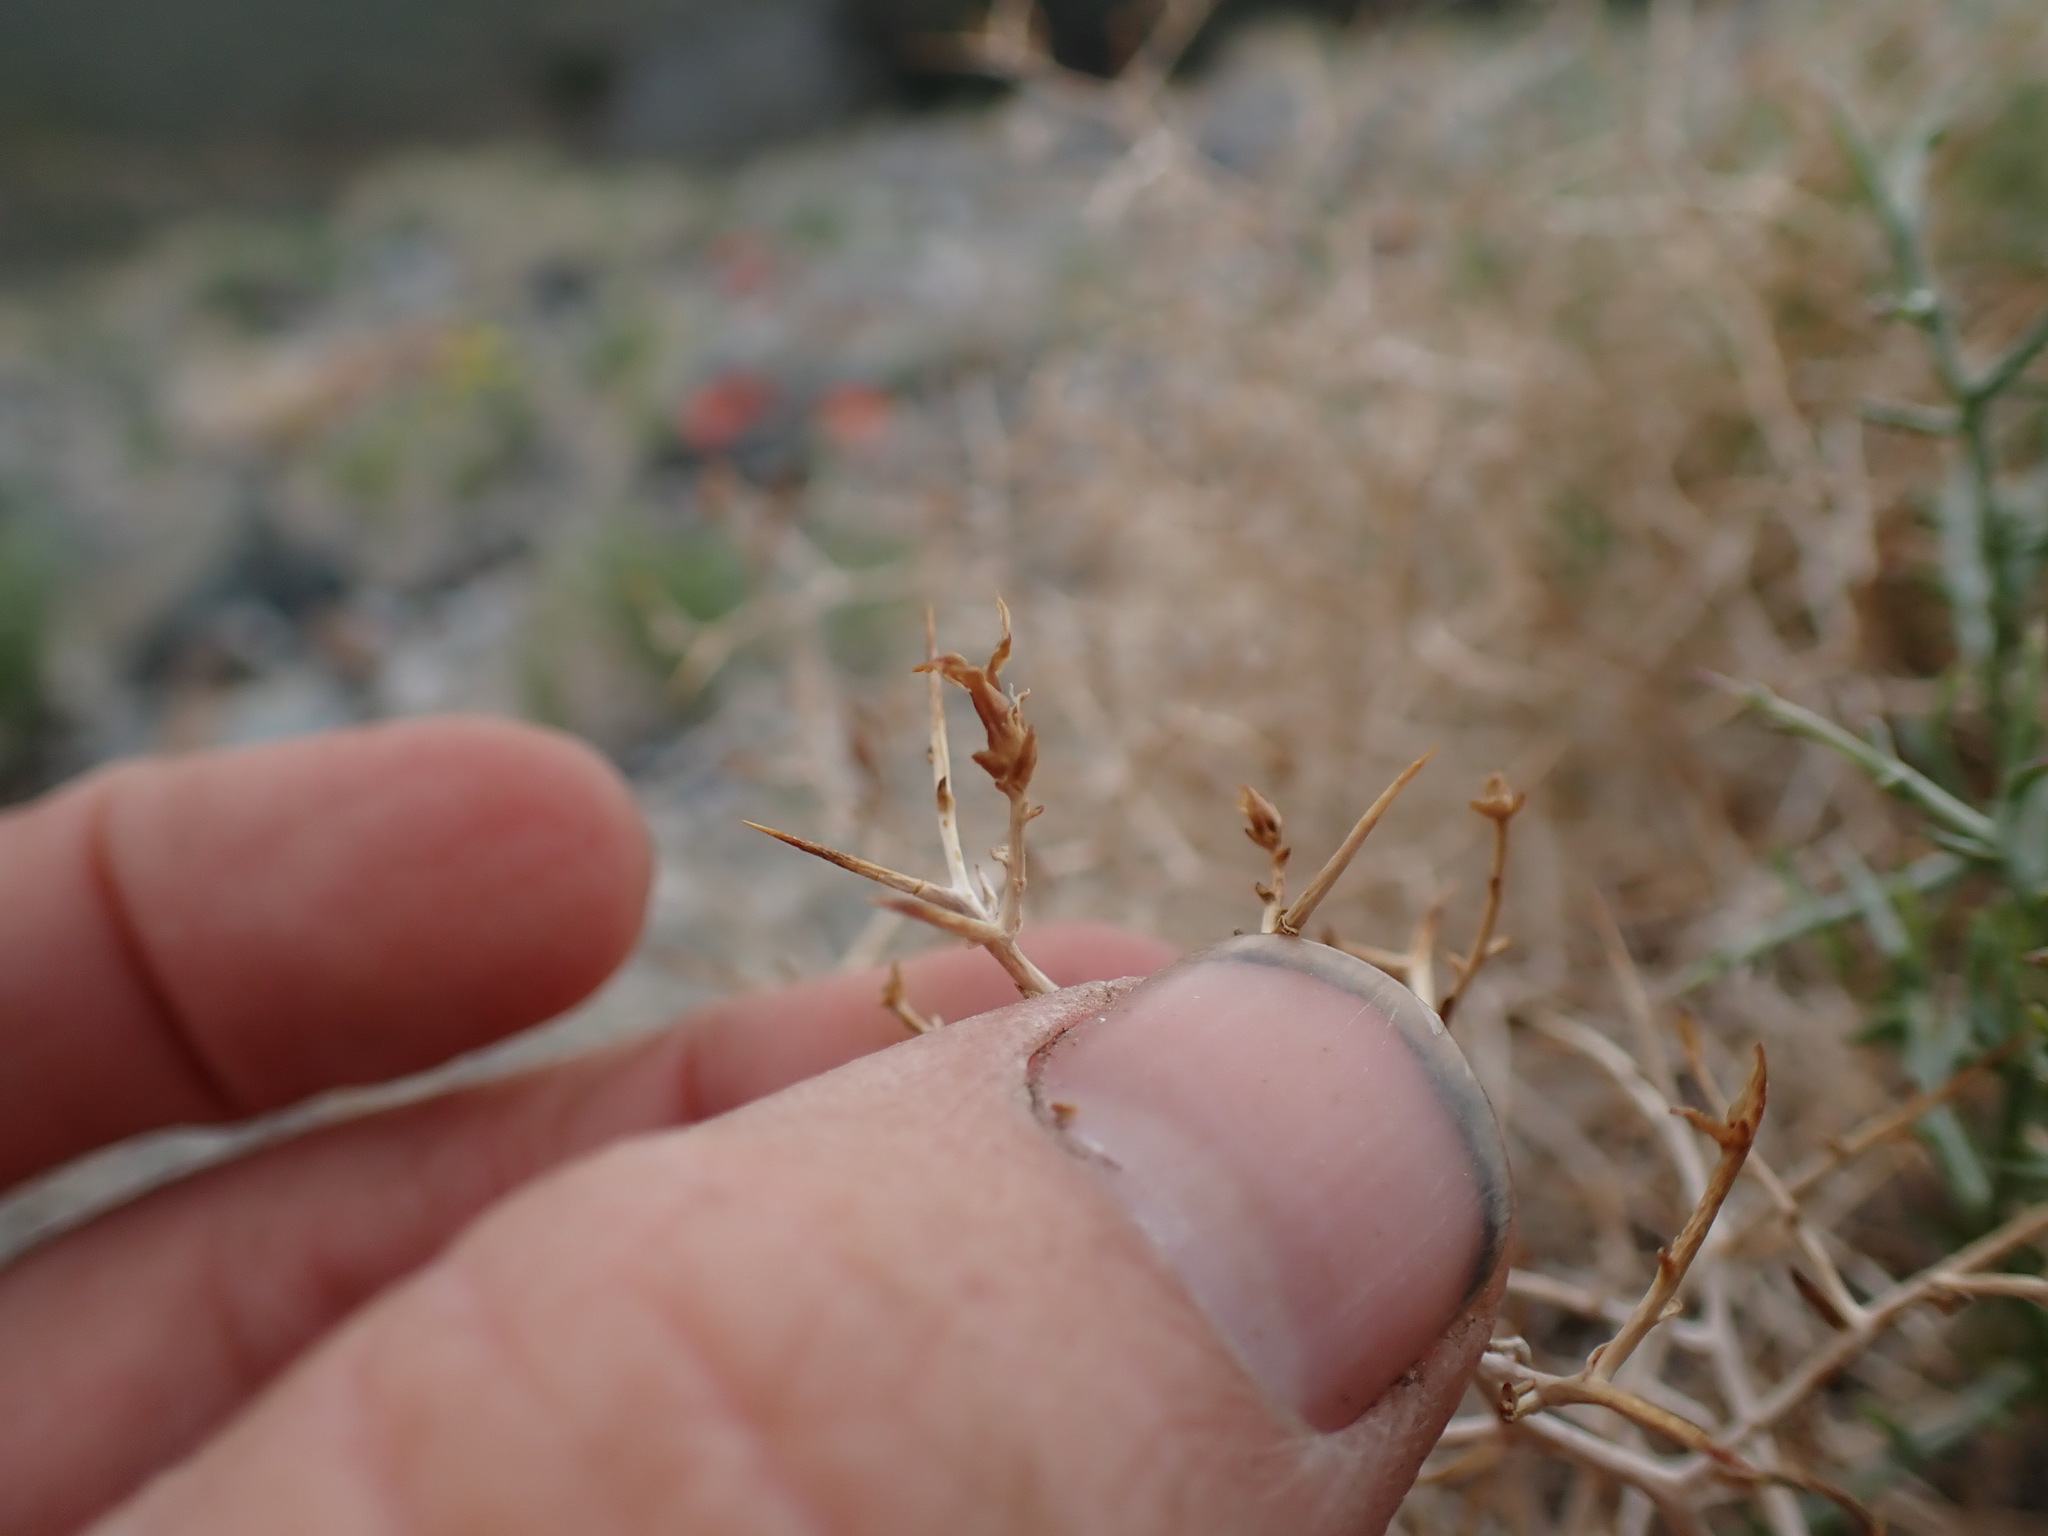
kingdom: Plantae
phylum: Tracheophyta
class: Magnoliopsida
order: Asterales
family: Asteraceae
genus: Pleiacanthus
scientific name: Pleiacanthus spinosus
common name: Thorny skeleton-weed
